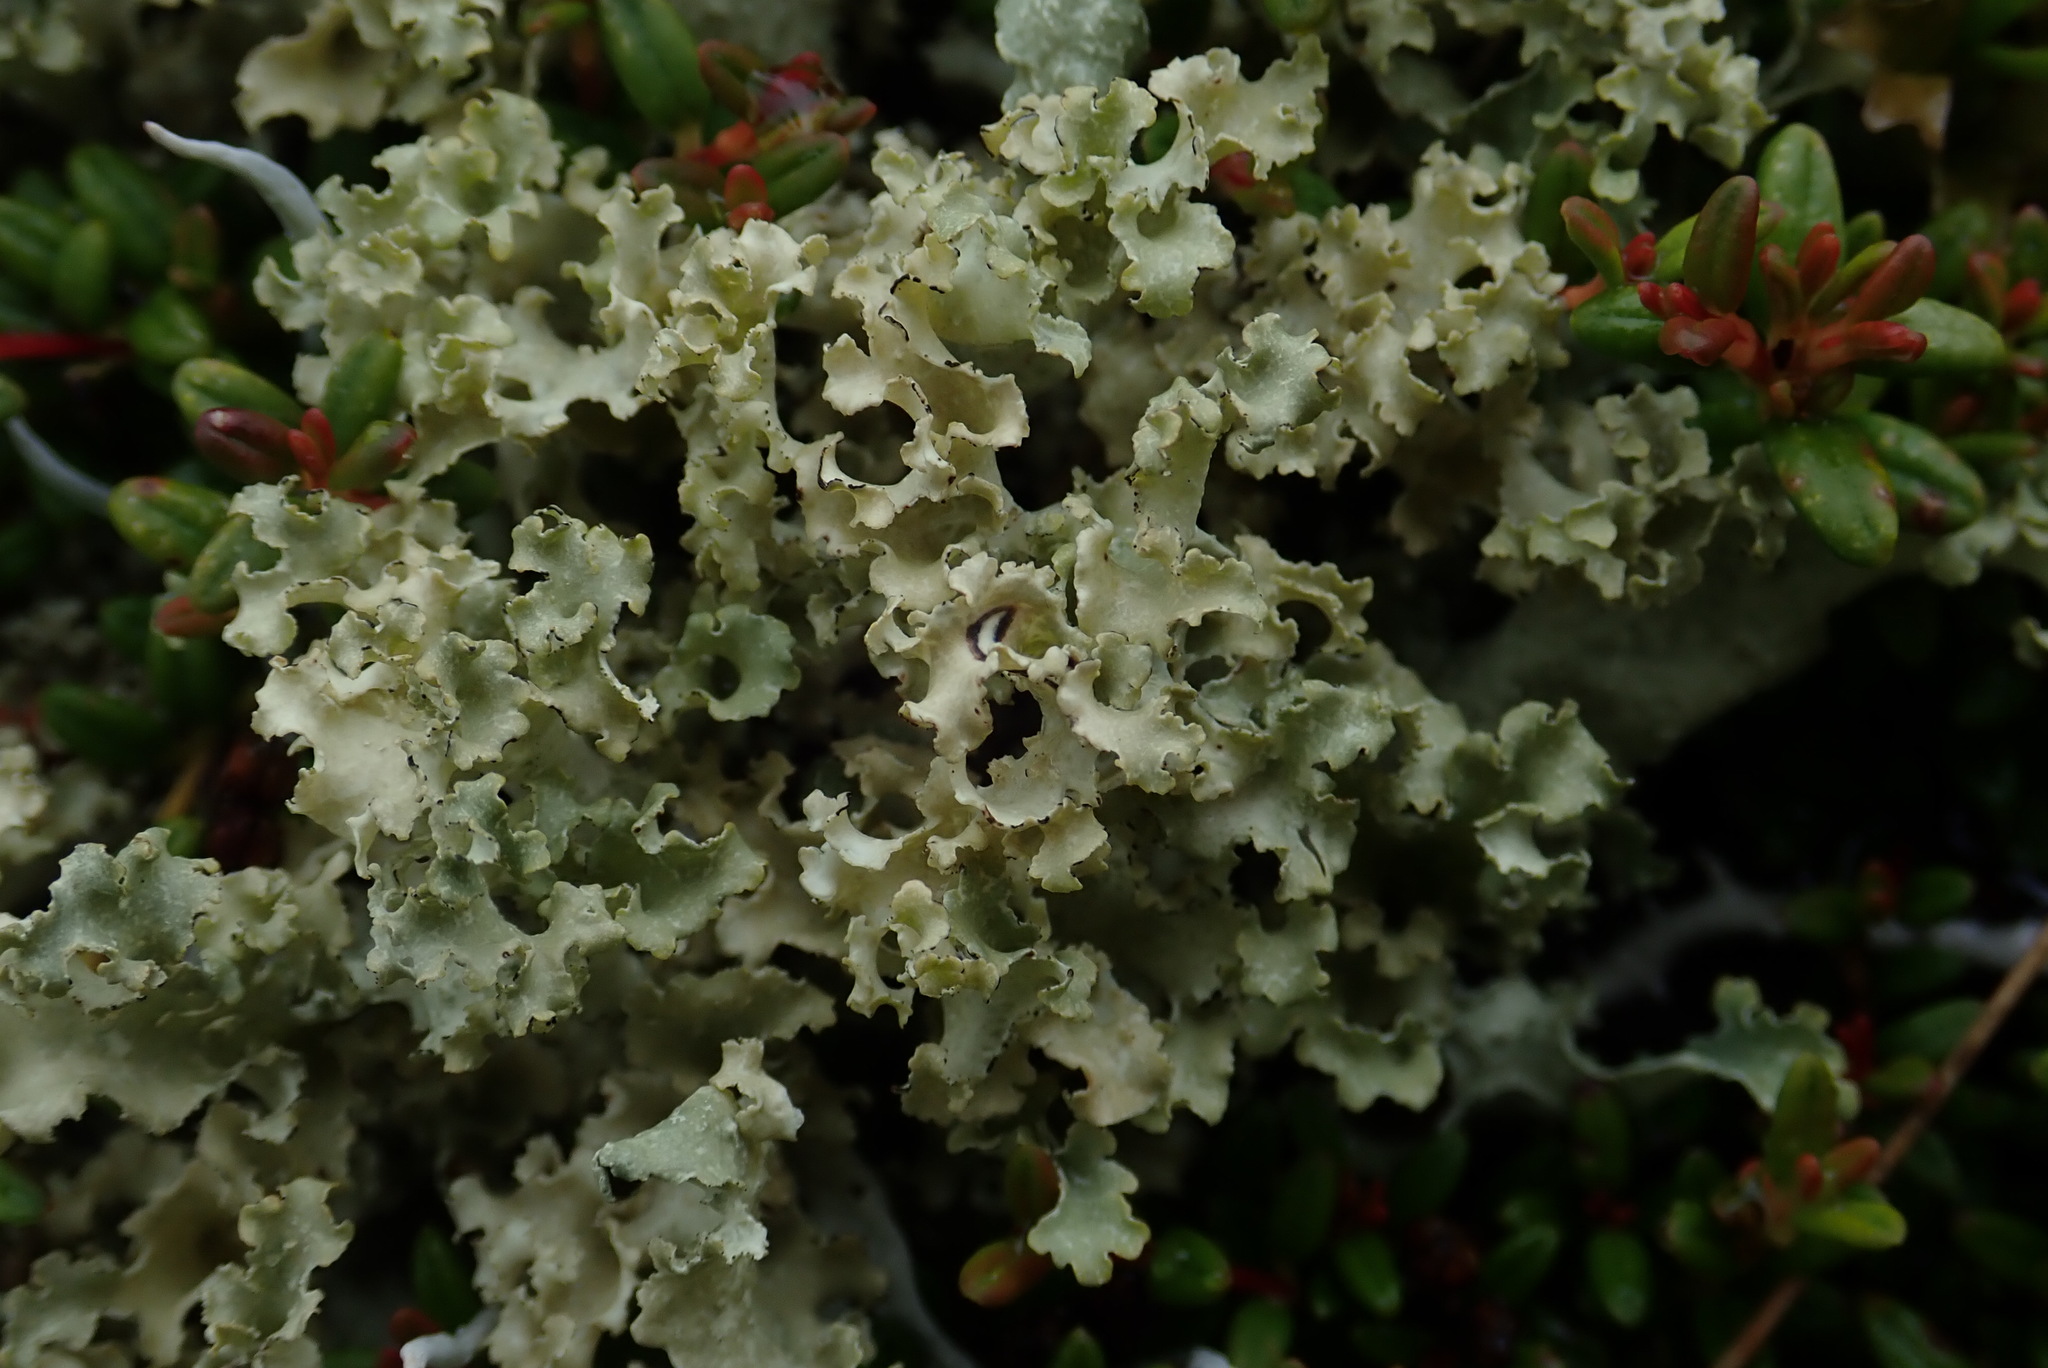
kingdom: Fungi
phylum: Ascomycota
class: Lecanoromycetes
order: Lecanorales
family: Parmeliaceae
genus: Nephromopsis
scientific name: Nephromopsis nivalis
